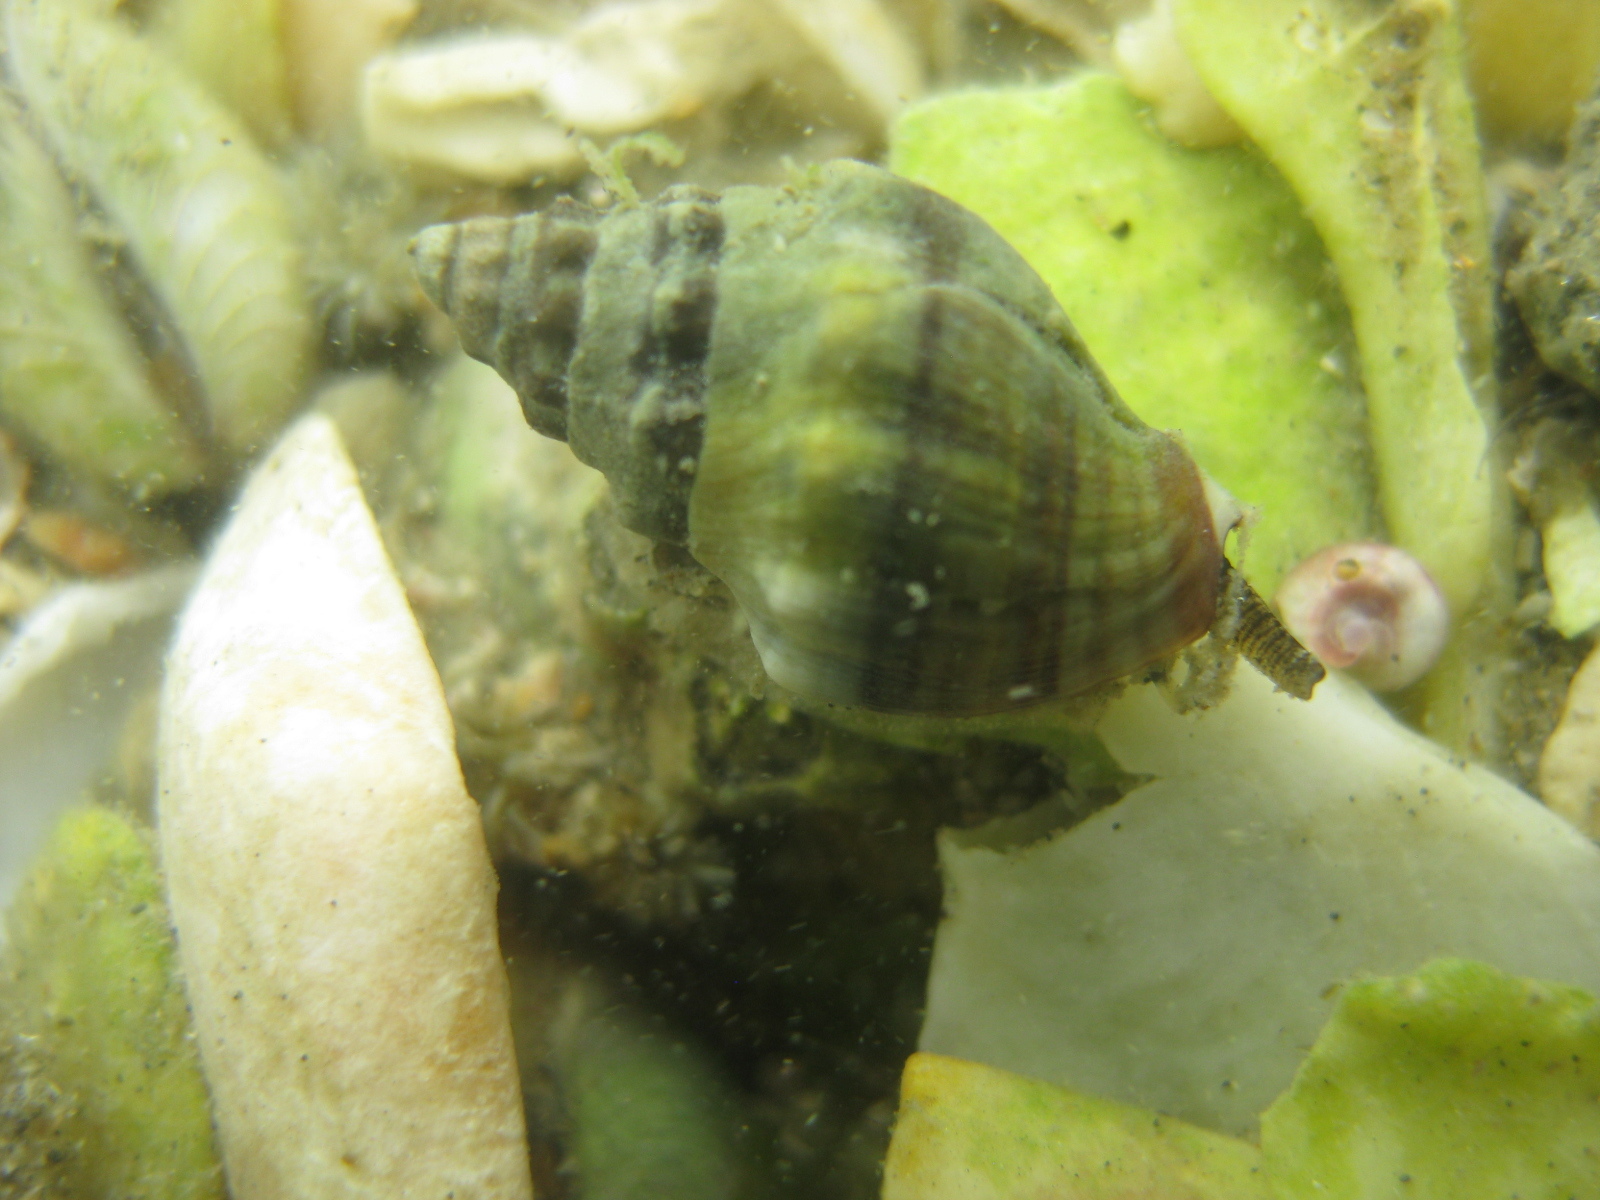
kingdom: Animalia
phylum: Mollusca
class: Gastropoda
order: Neogastropoda
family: Cominellidae
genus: Cominella
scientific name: Cominella glandiformis
